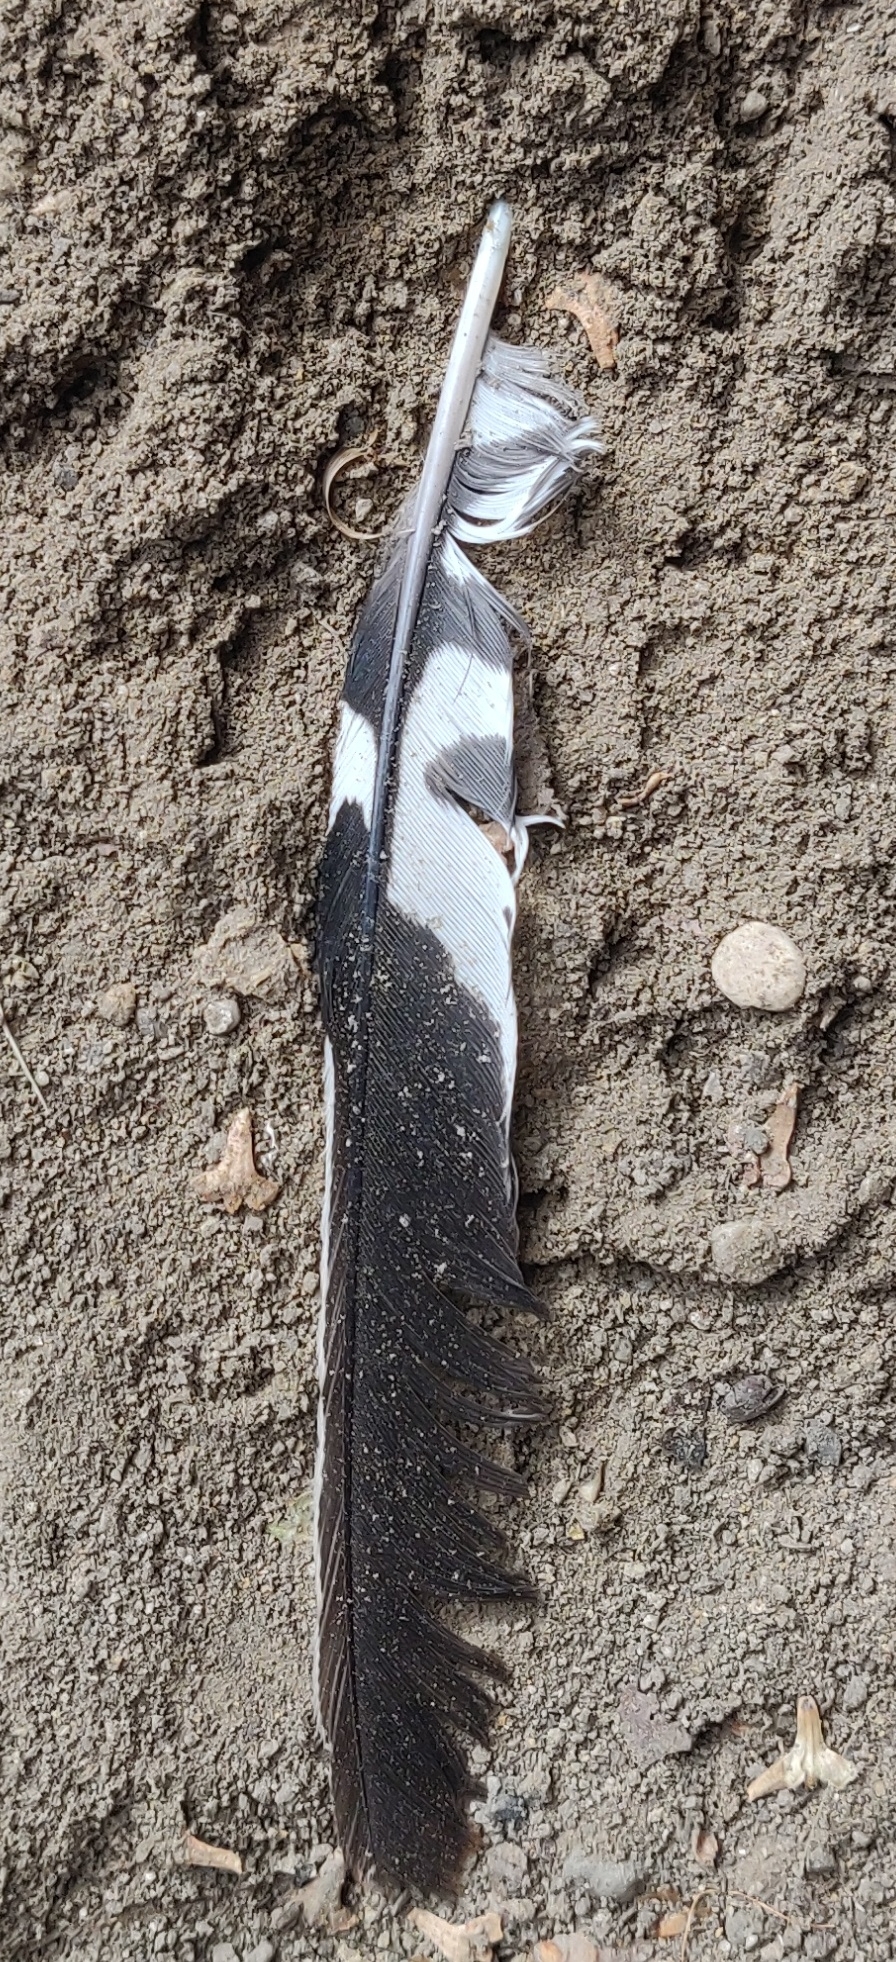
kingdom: Animalia
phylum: Chordata
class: Aves
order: Piciformes
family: Picidae
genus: Melanerpes
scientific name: Melanerpes carolinus
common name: Red-bellied woodpecker
